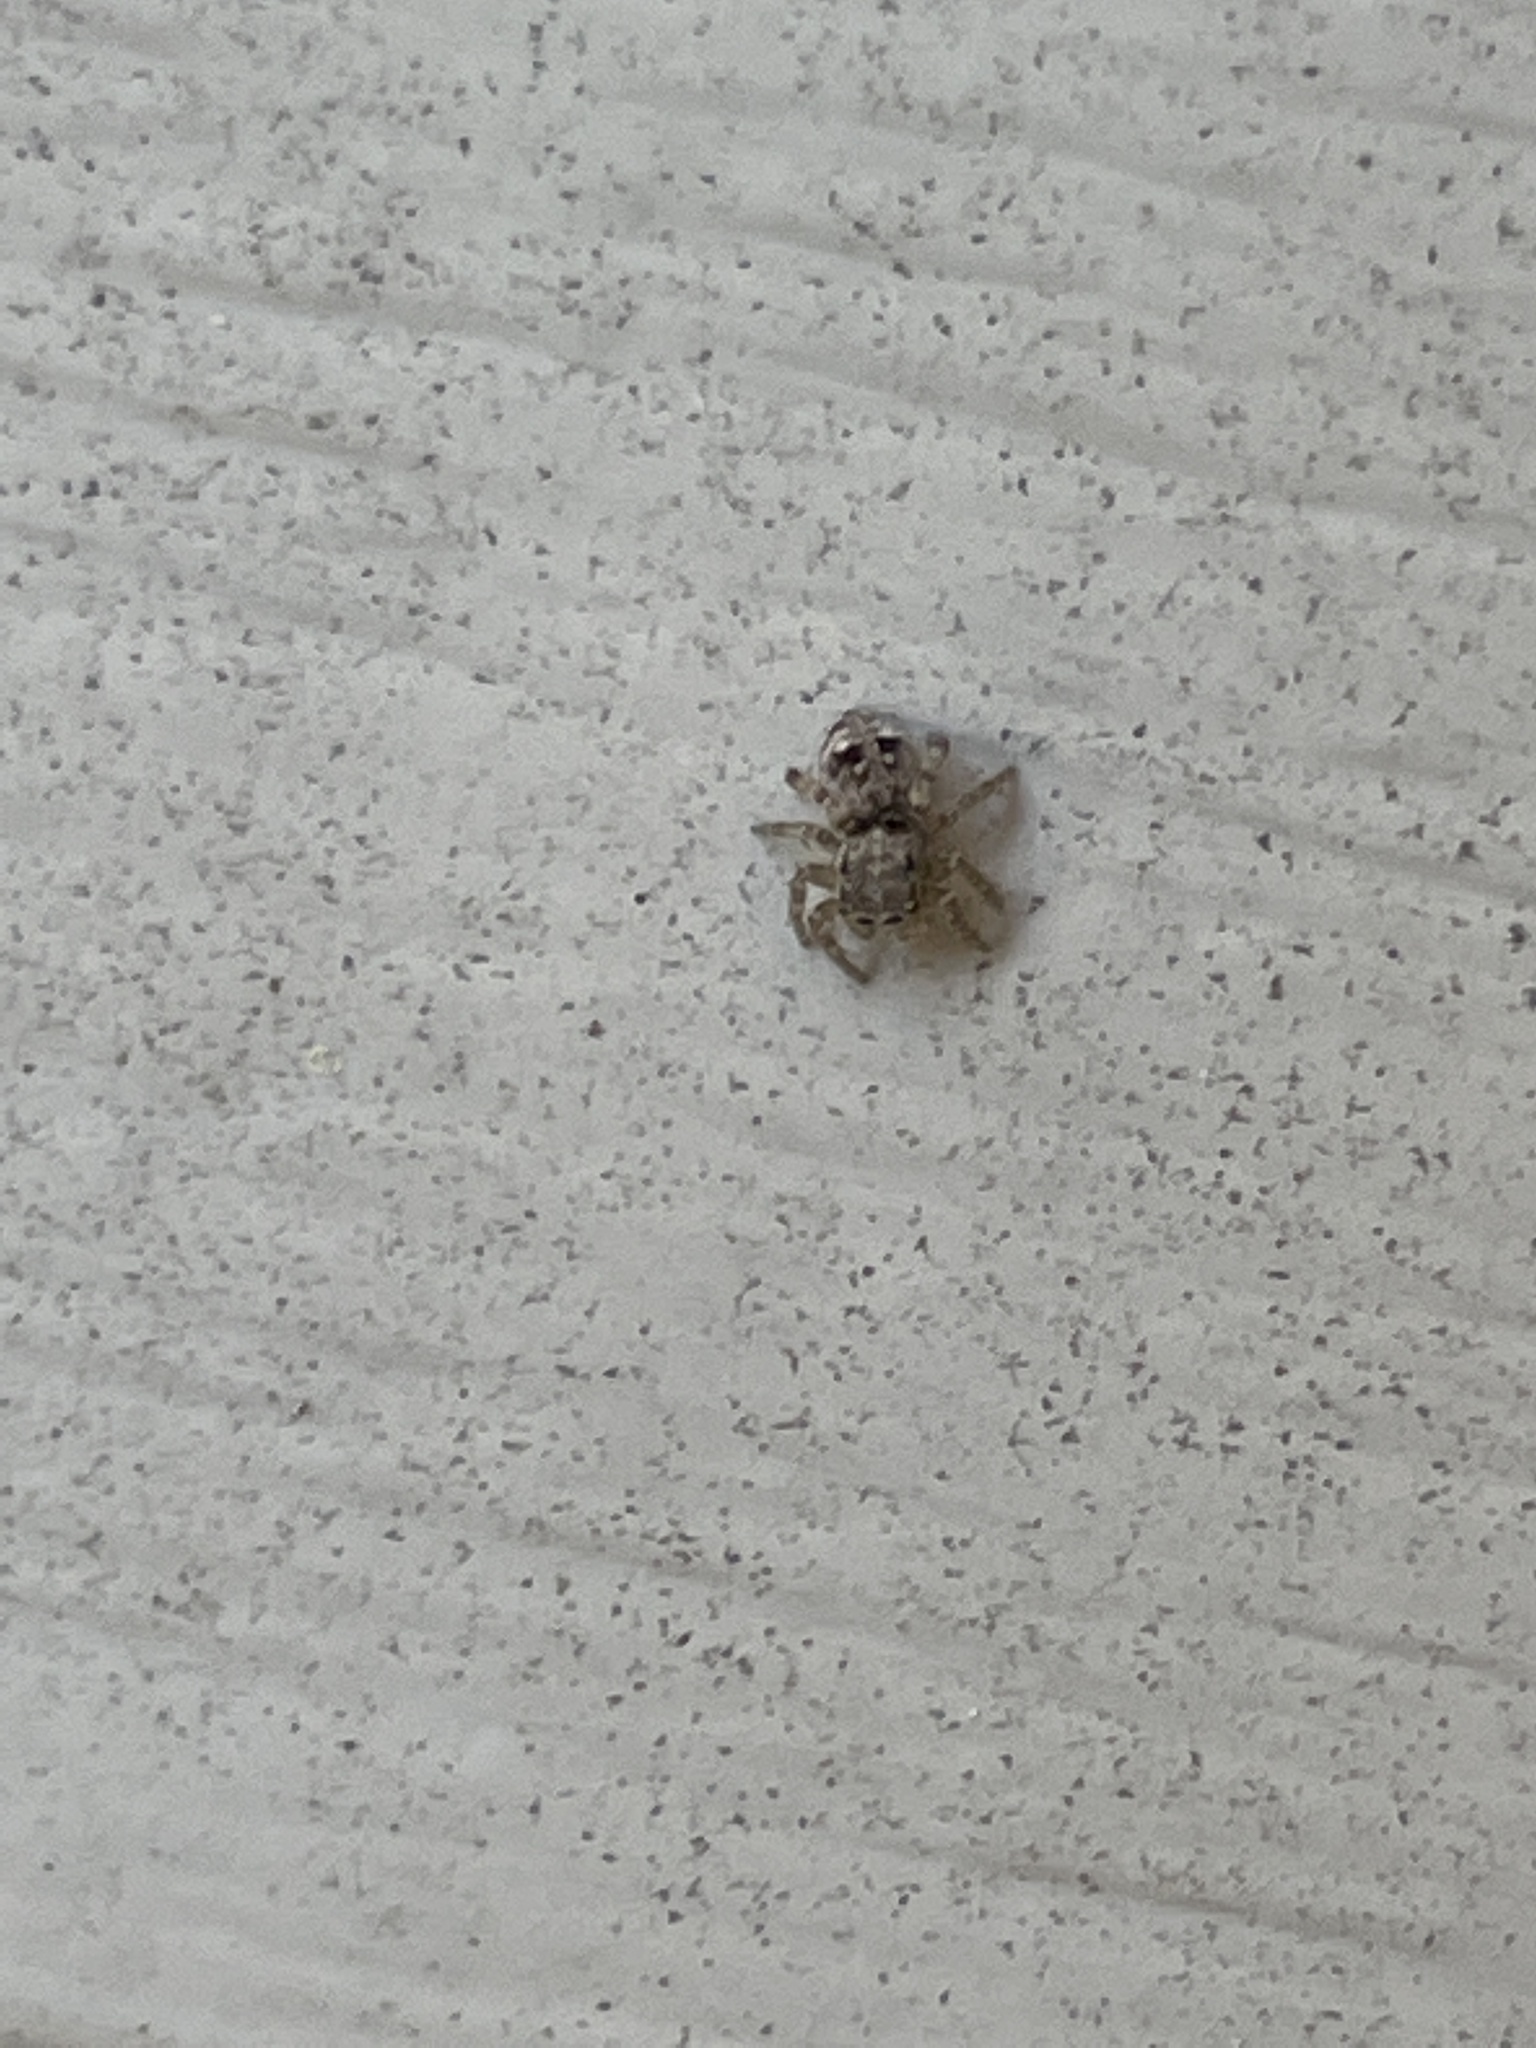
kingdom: Animalia
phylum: Arthropoda
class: Arachnida
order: Araneae
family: Salticidae
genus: Attulus
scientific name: Attulus fasciger
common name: Asiatic wall jumping spider
